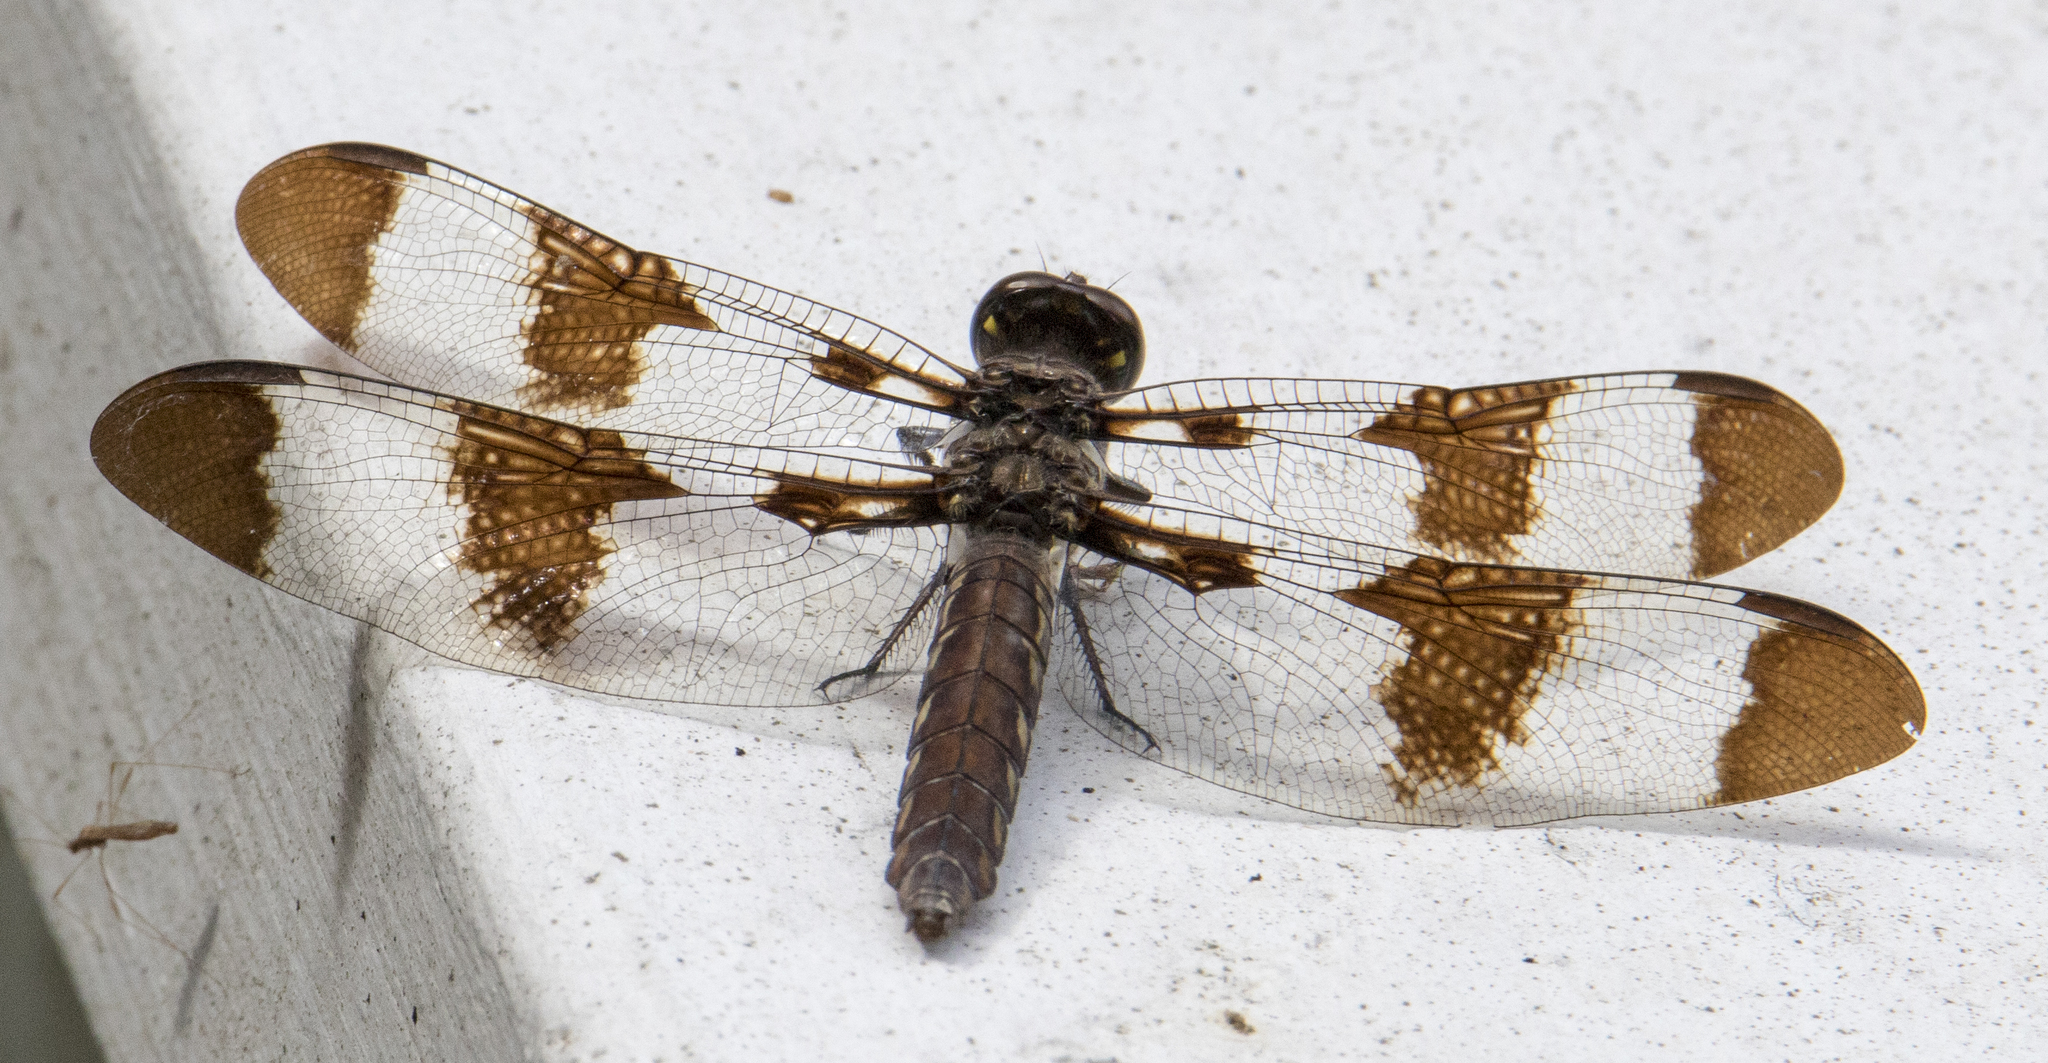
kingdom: Animalia
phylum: Arthropoda
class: Insecta
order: Odonata
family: Libellulidae
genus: Plathemis
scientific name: Plathemis lydia
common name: Common whitetail
